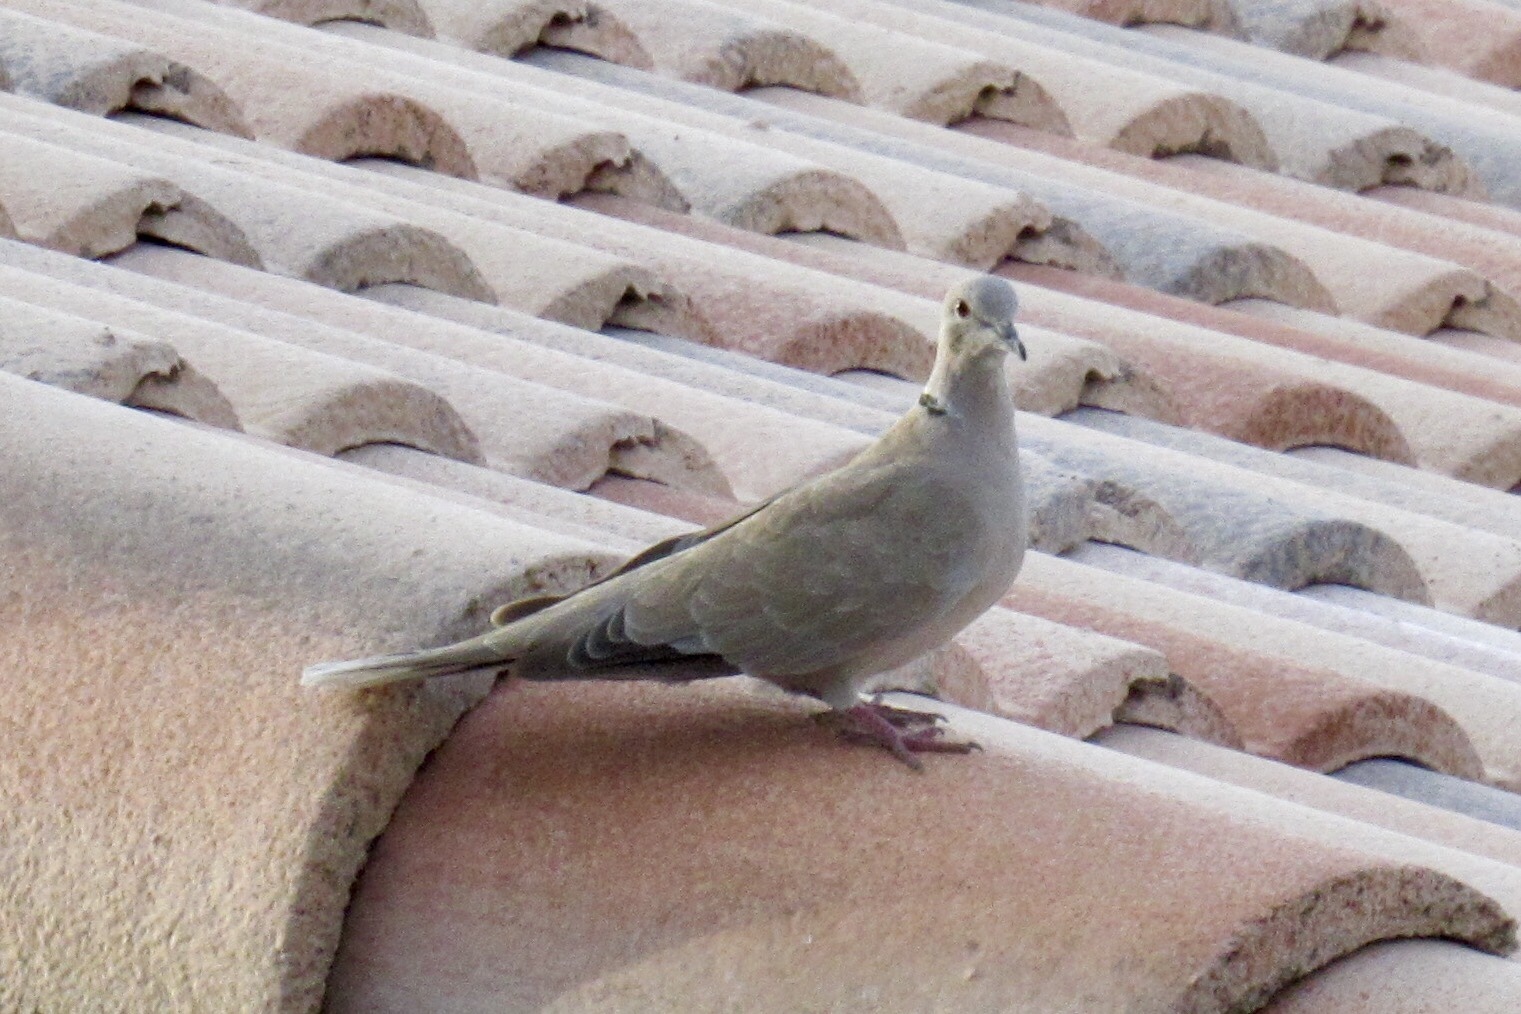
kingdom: Animalia
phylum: Chordata
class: Aves
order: Columbiformes
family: Columbidae
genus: Streptopelia
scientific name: Streptopelia decaocto
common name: Eurasian collared dove
